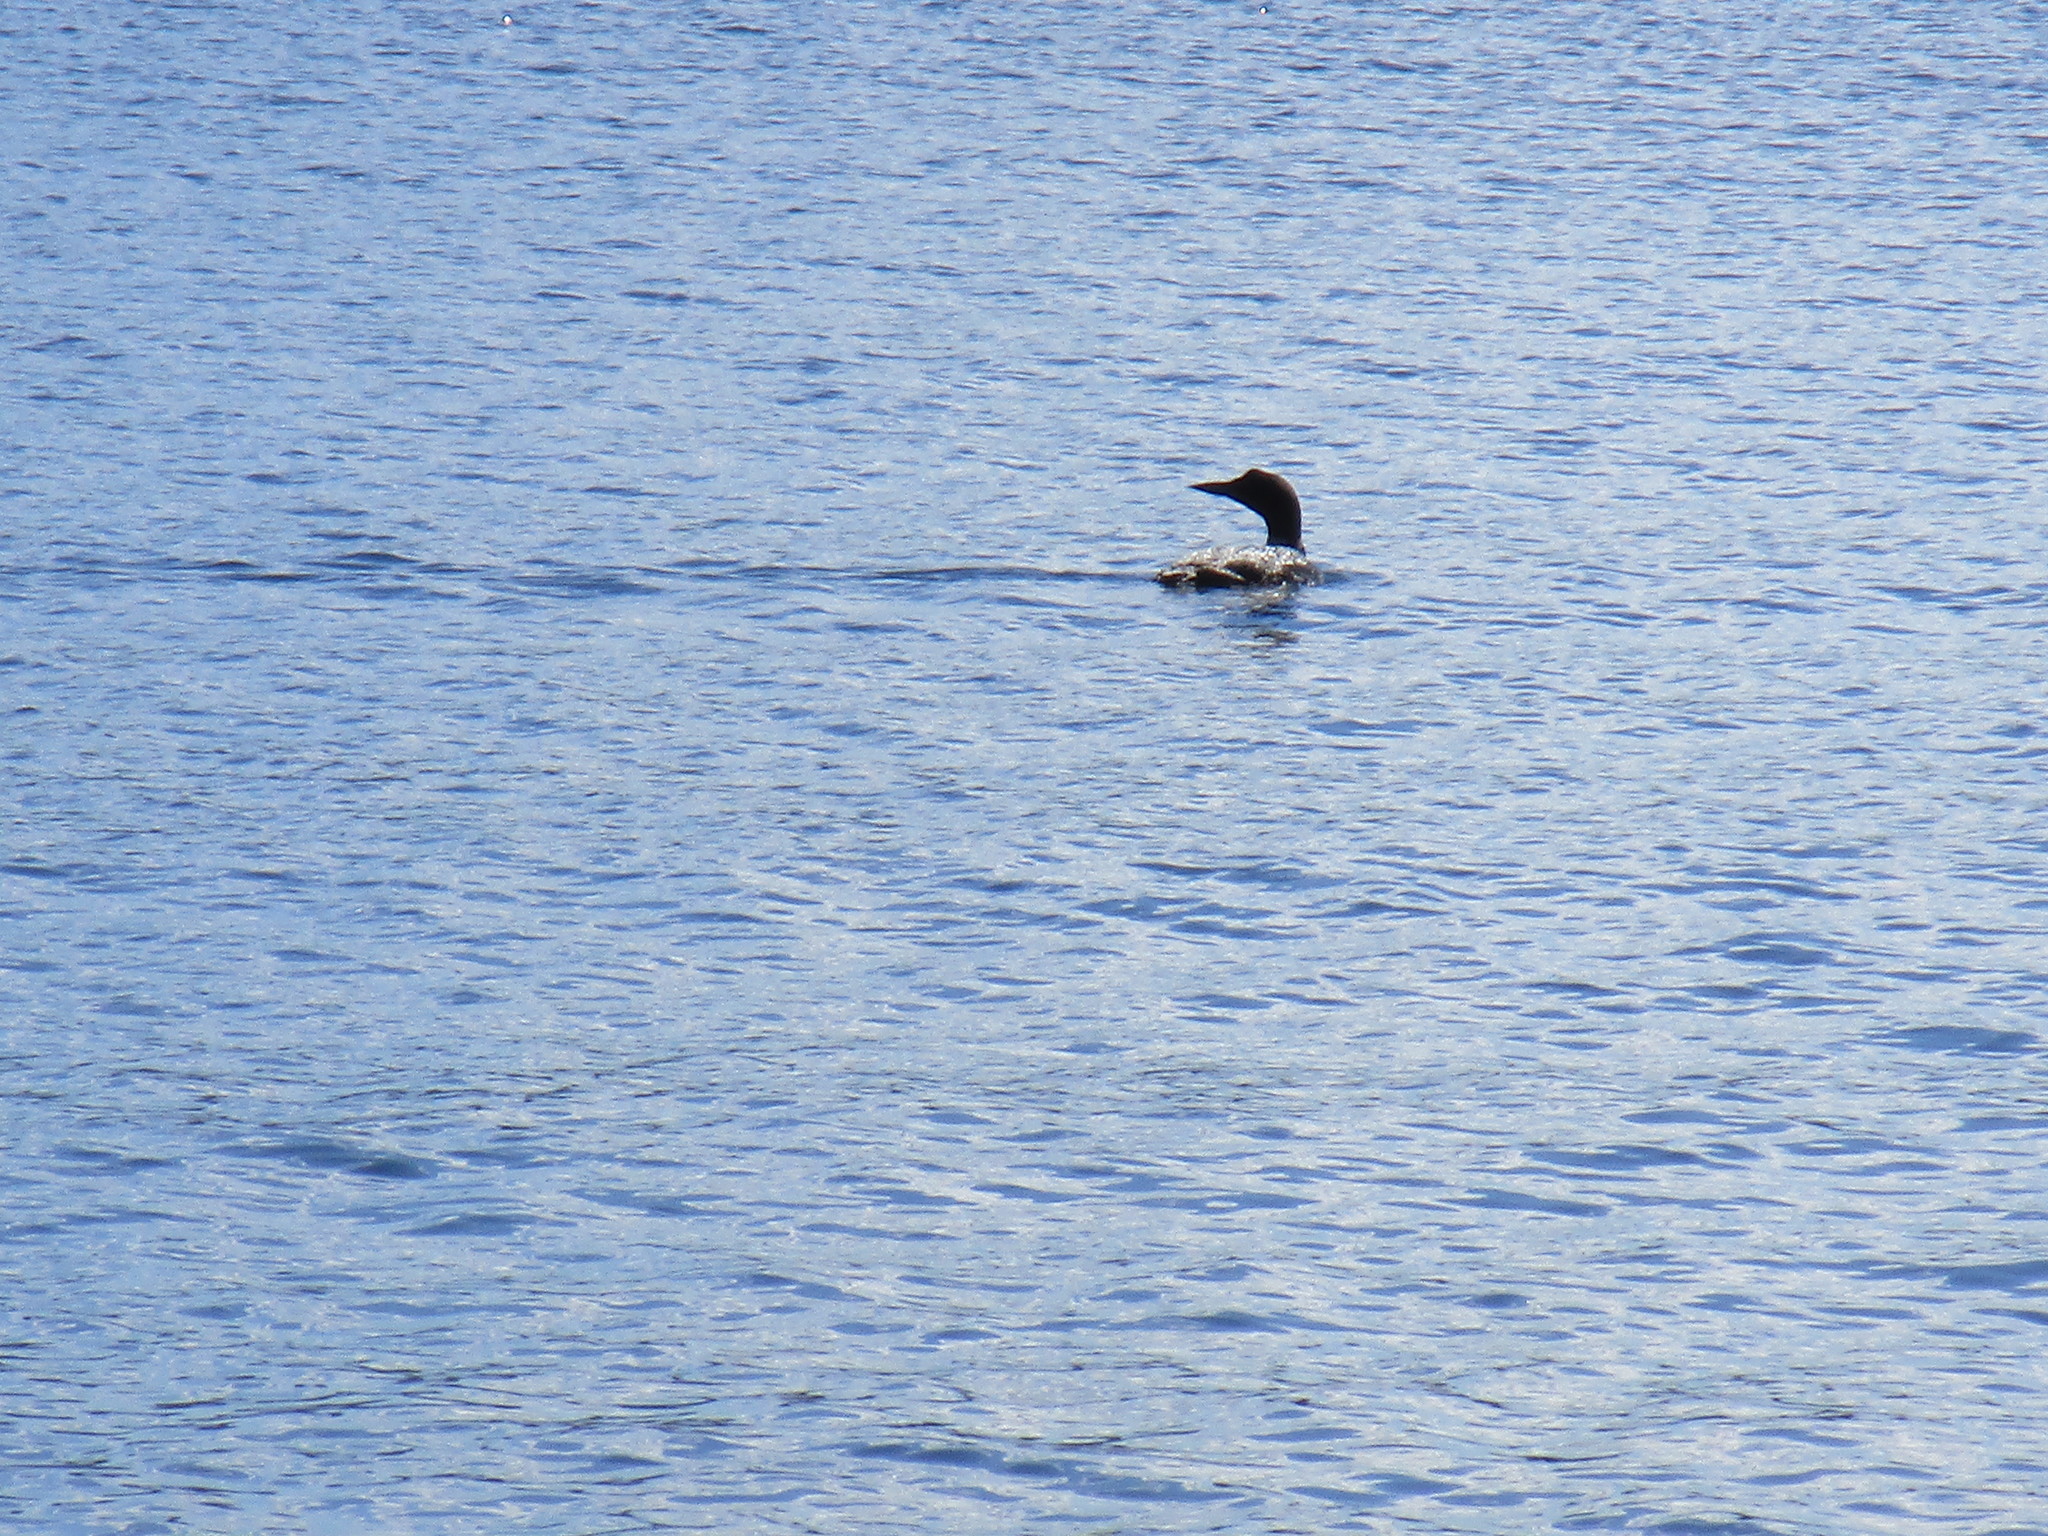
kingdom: Animalia
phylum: Chordata
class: Aves
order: Gaviiformes
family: Gaviidae
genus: Gavia
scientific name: Gavia immer
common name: Common loon
